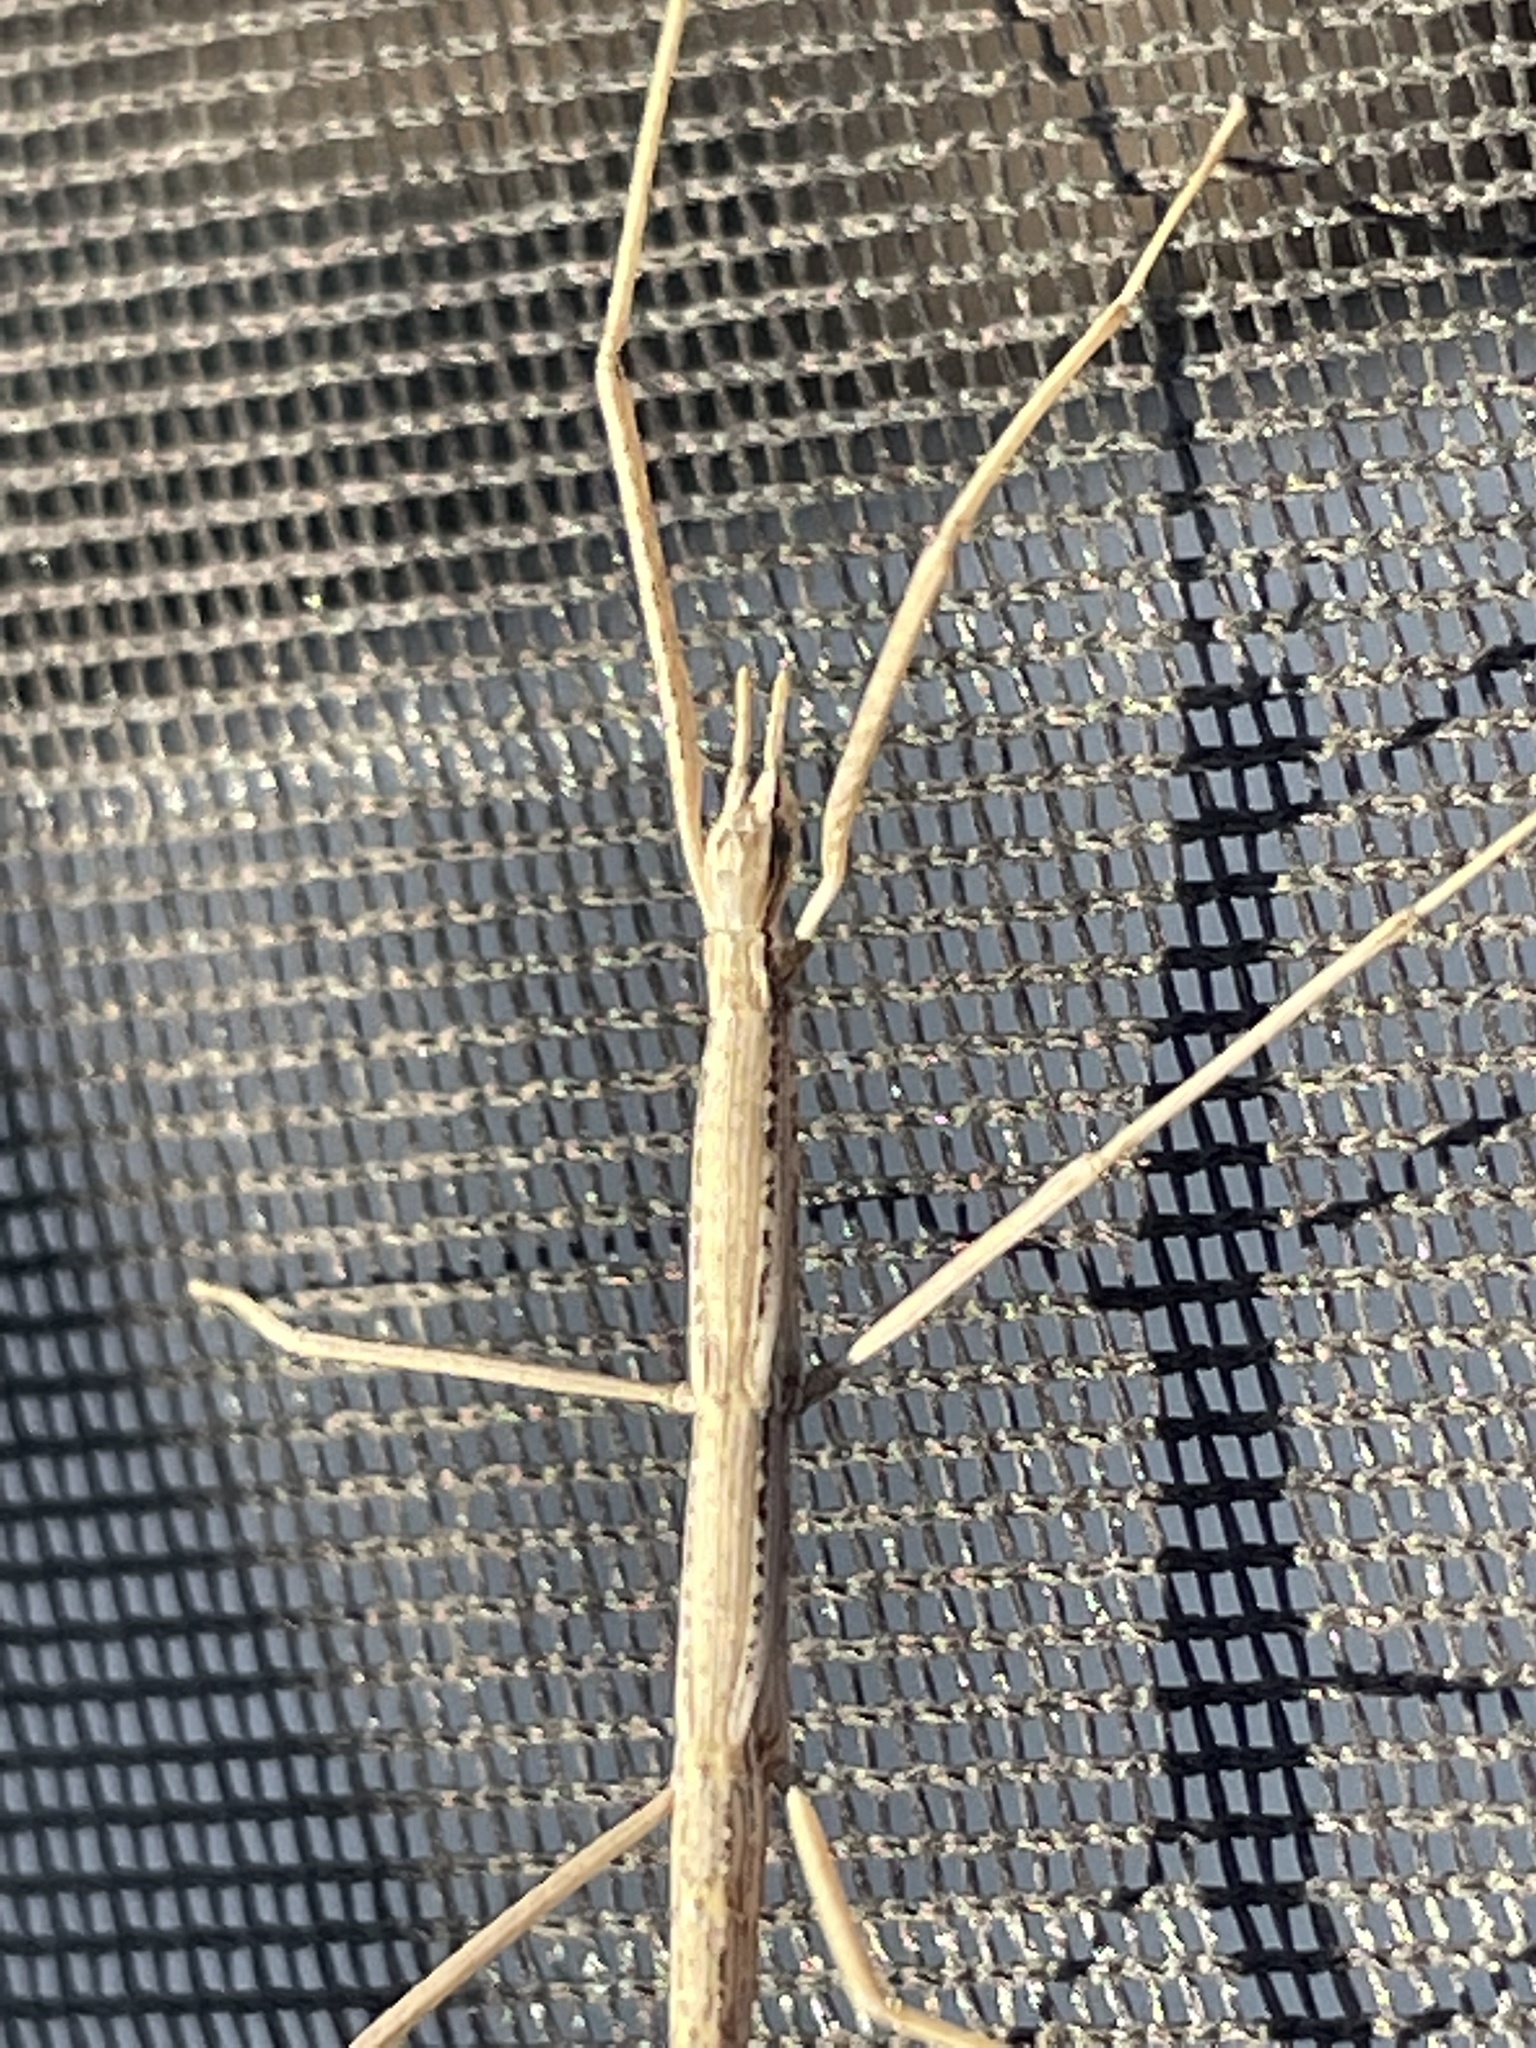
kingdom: Animalia
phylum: Arthropoda
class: Insecta
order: Phasmida
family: Heteronemiidae
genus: Parabacillus
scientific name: Parabacillus hesperus
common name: Western short-horned walkingstick
